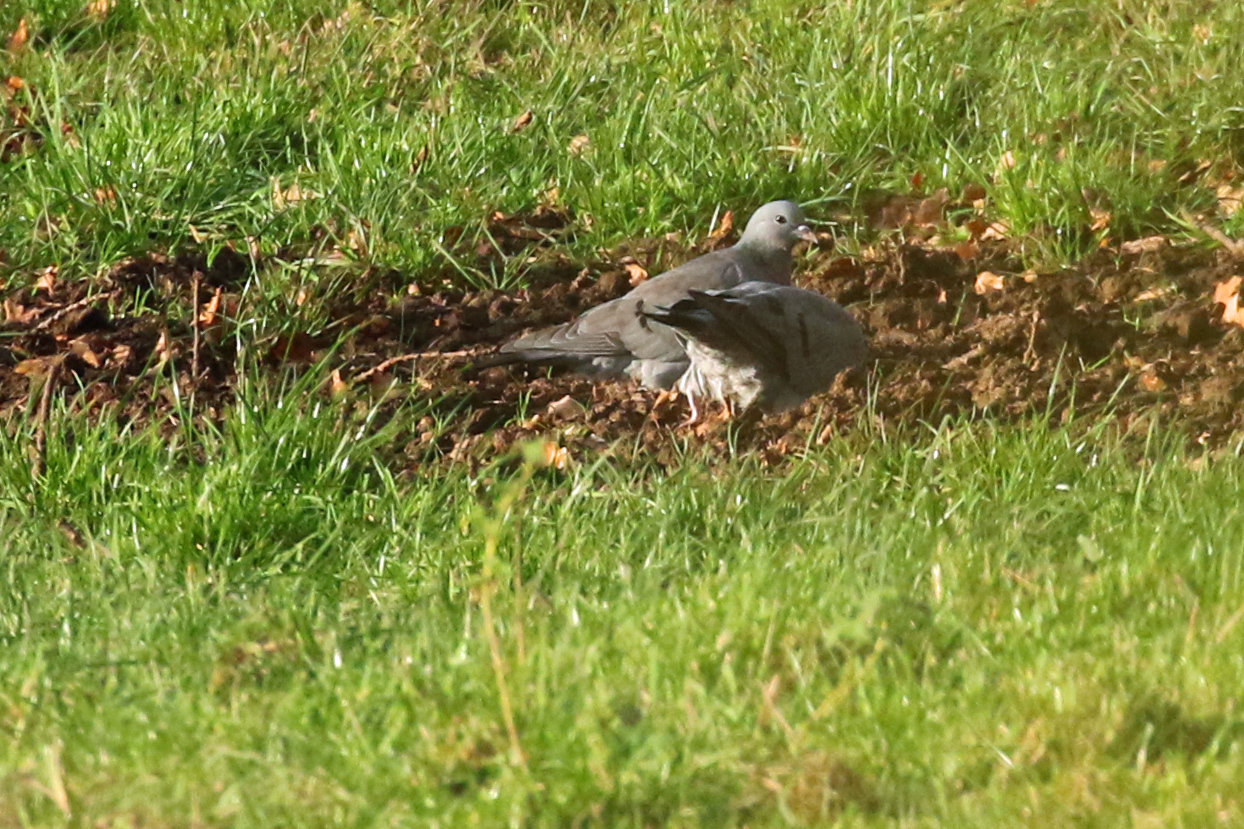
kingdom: Animalia
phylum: Chordata
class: Aves
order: Columbiformes
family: Columbidae
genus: Columba
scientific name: Columba oenas
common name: Stock dove
